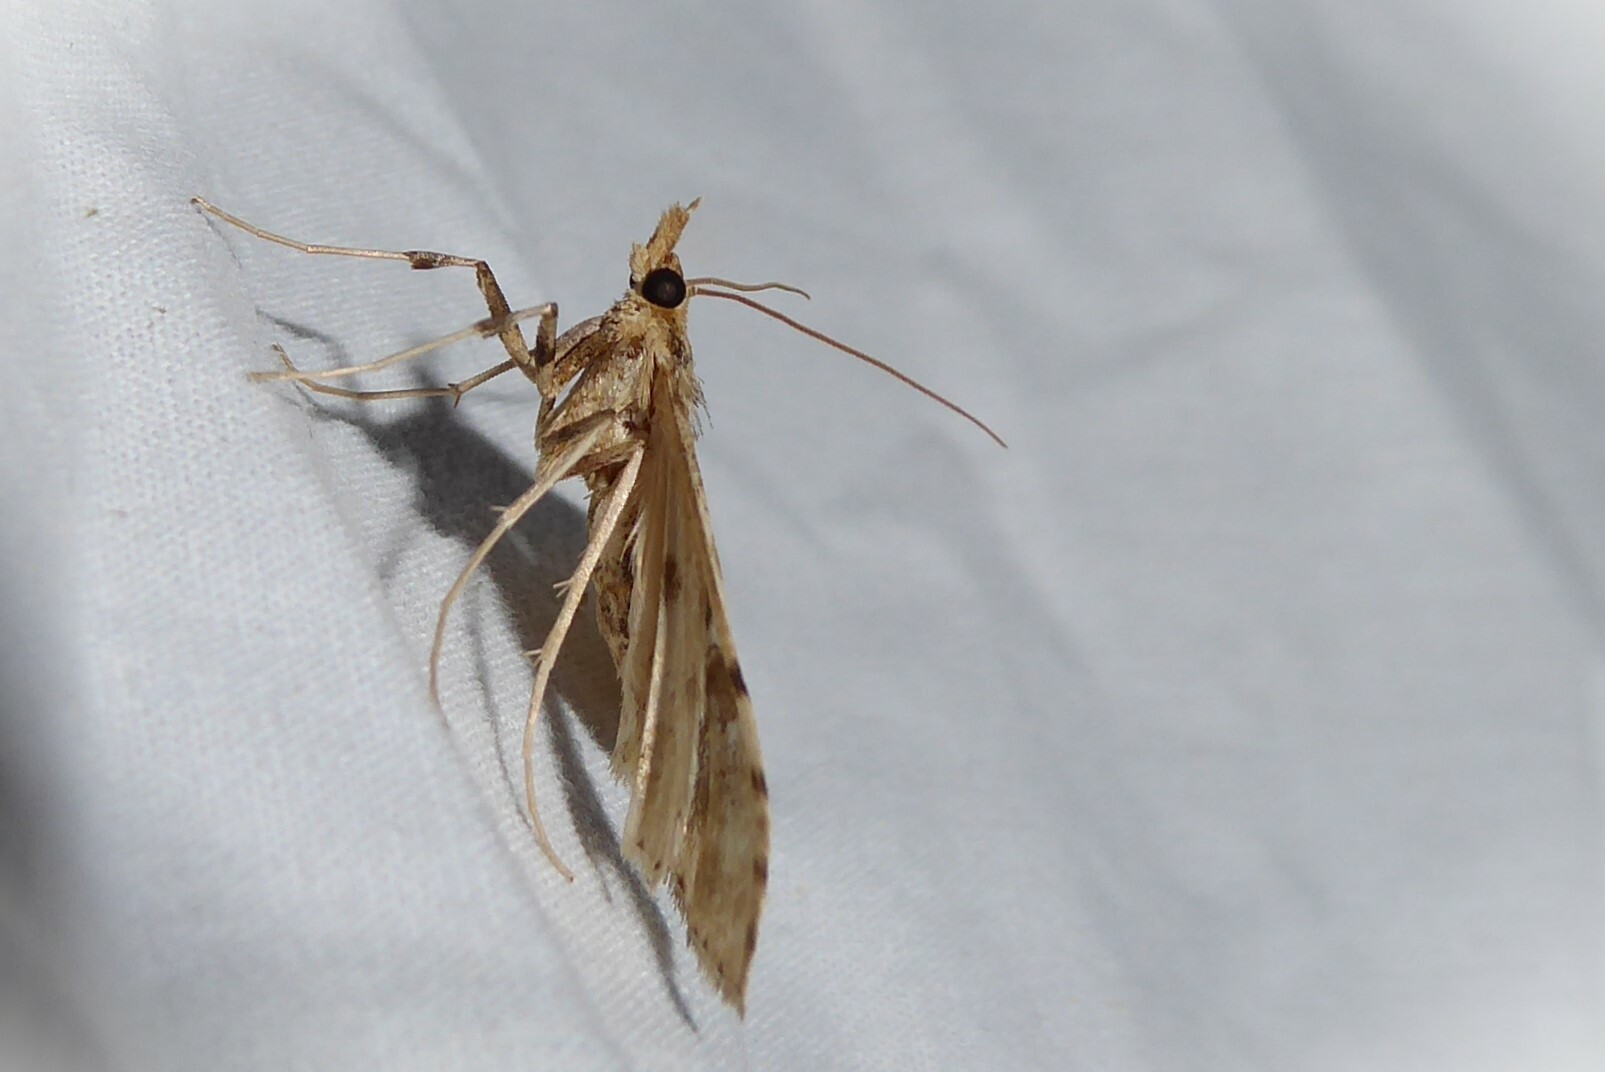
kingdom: Animalia
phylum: Arthropoda
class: Insecta
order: Lepidoptera
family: Crambidae
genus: Sceliodes
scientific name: Sceliodes cordalis
